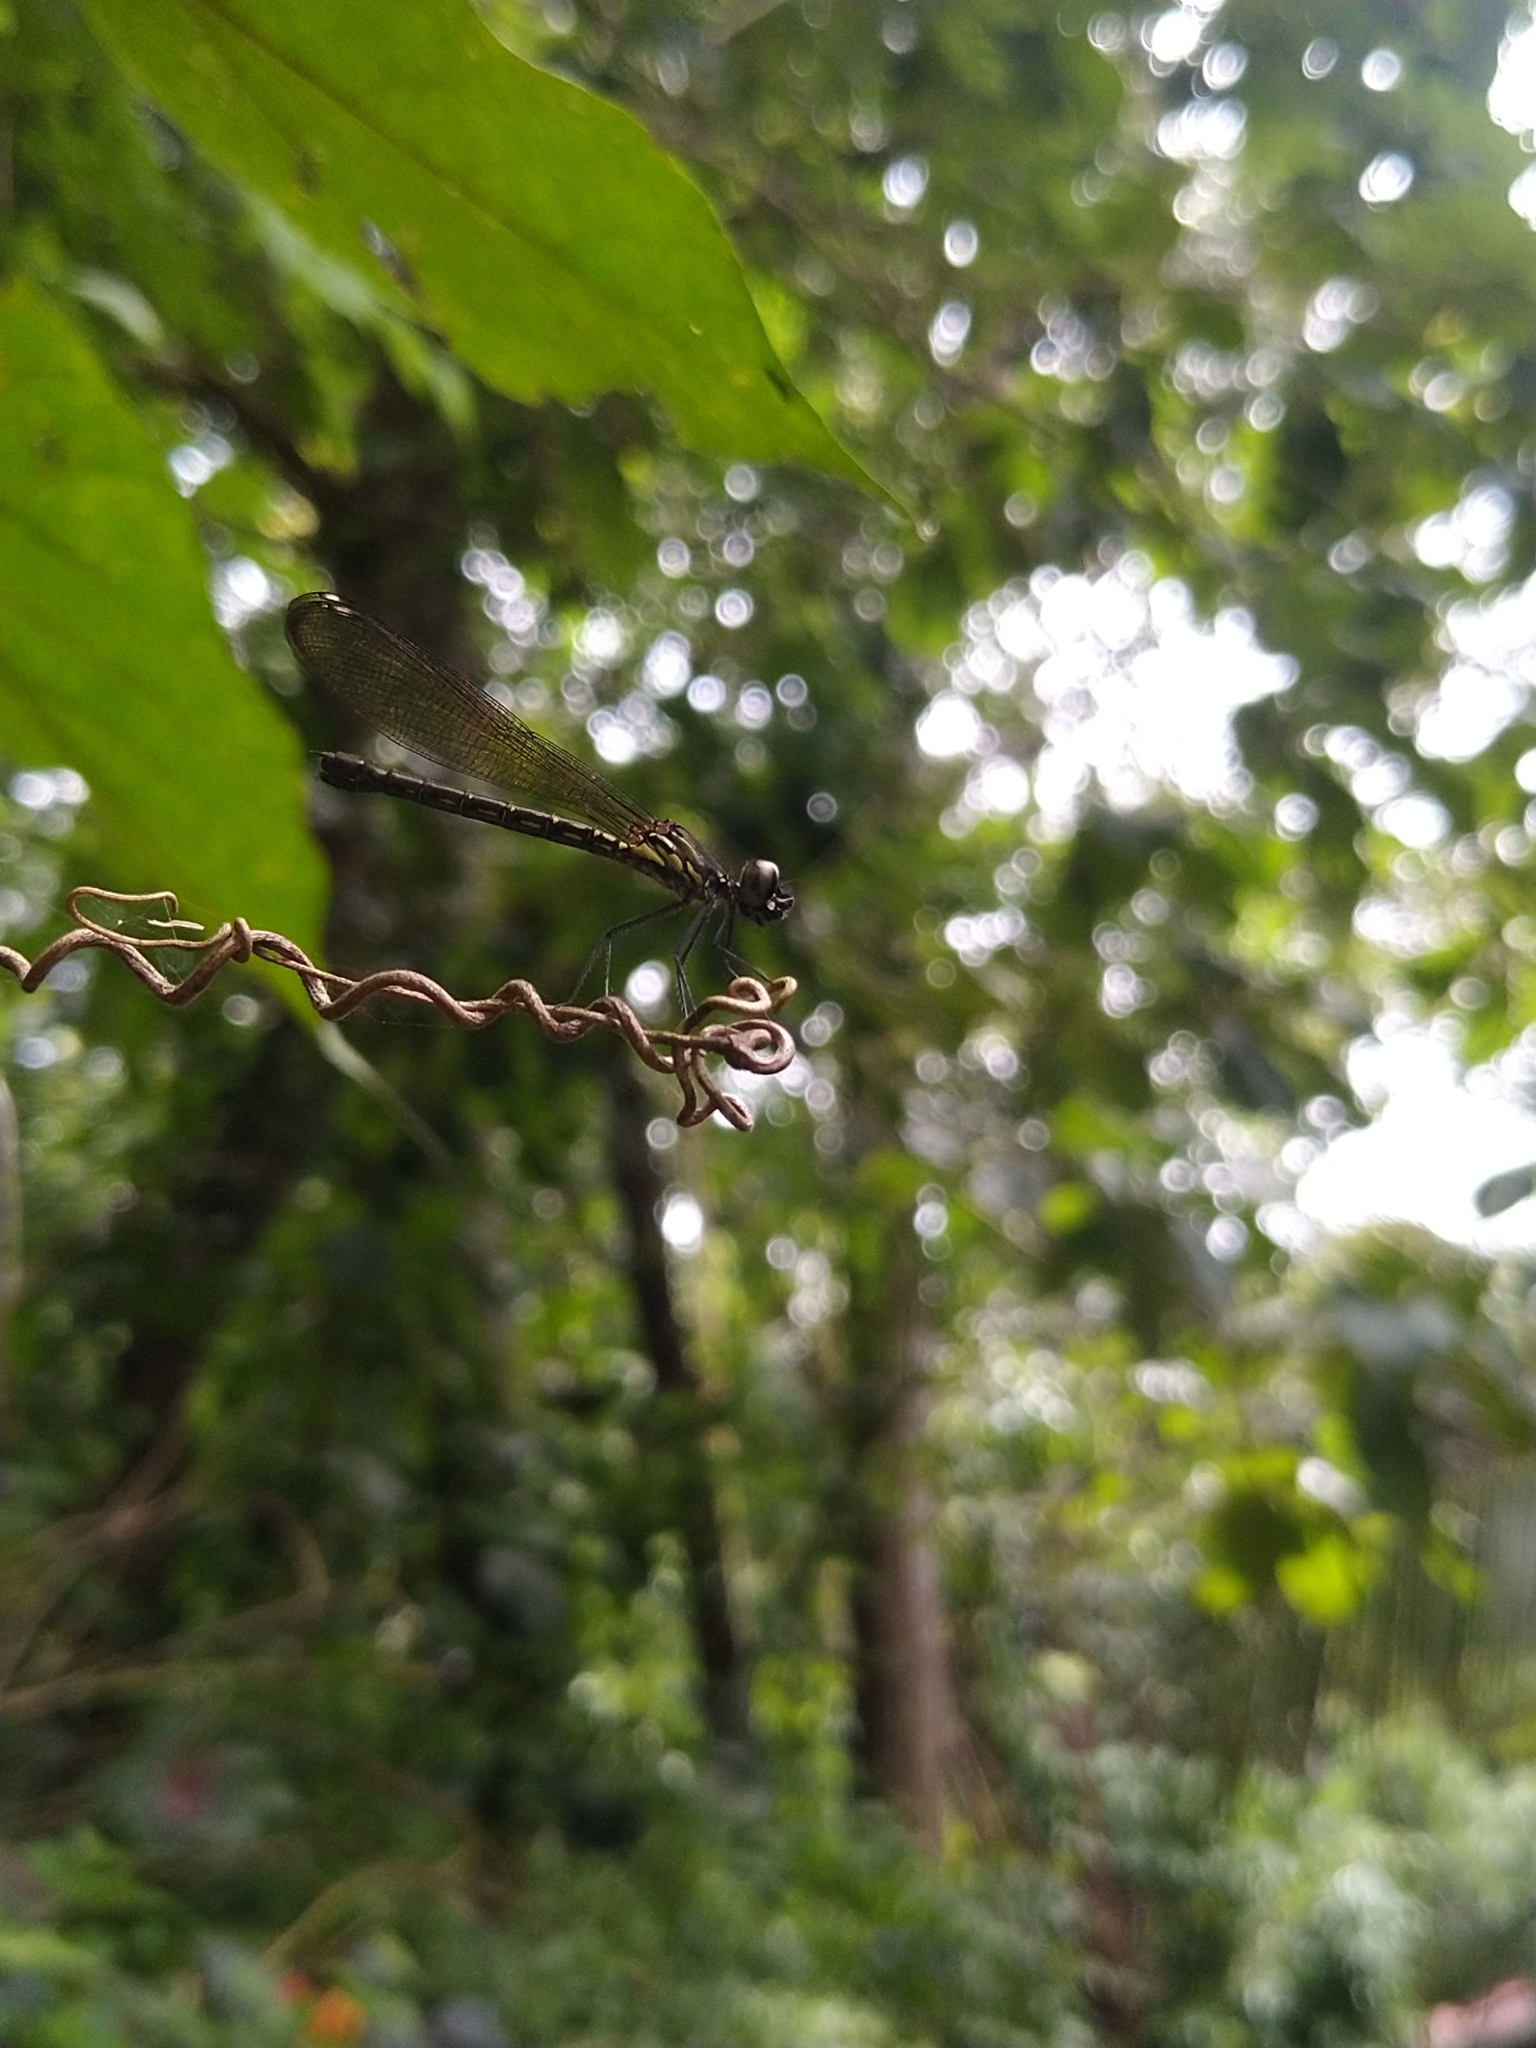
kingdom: Animalia
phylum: Arthropoda
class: Insecta
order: Odonata
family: Chlorocyphidae
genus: Heliocypha
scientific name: Heliocypha bisignata
